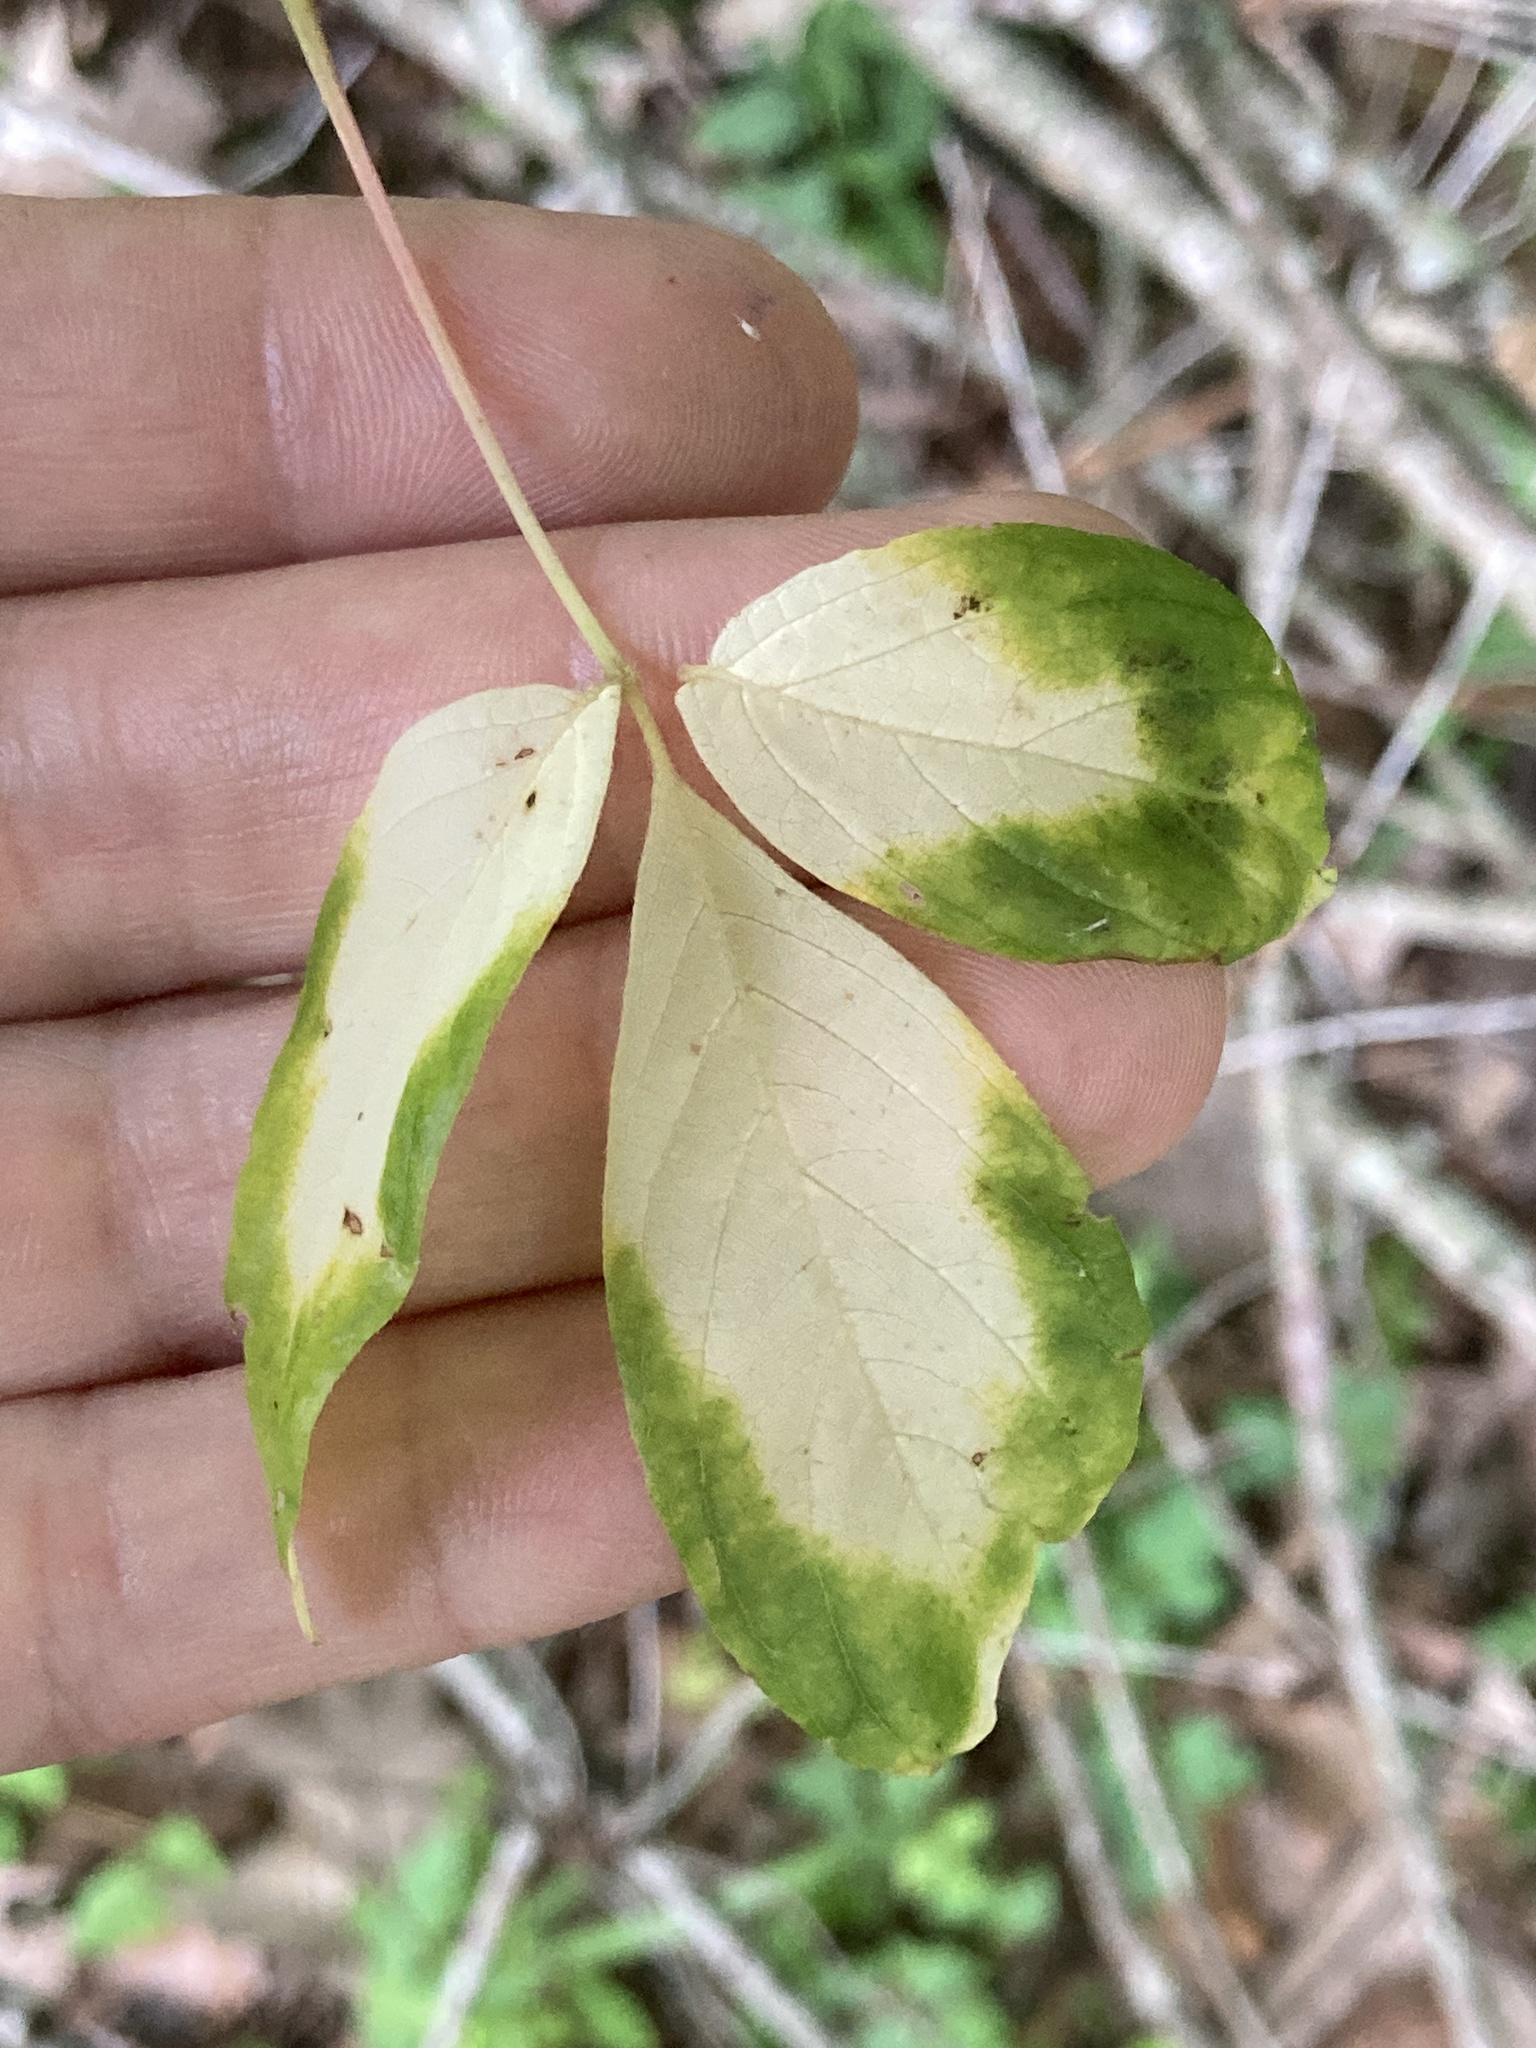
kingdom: Plantae
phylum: Tracheophyta
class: Magnoliopsida
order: Sapindales
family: Sapindaceae
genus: Acer
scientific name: Acer negundo
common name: Ashleaf maple
